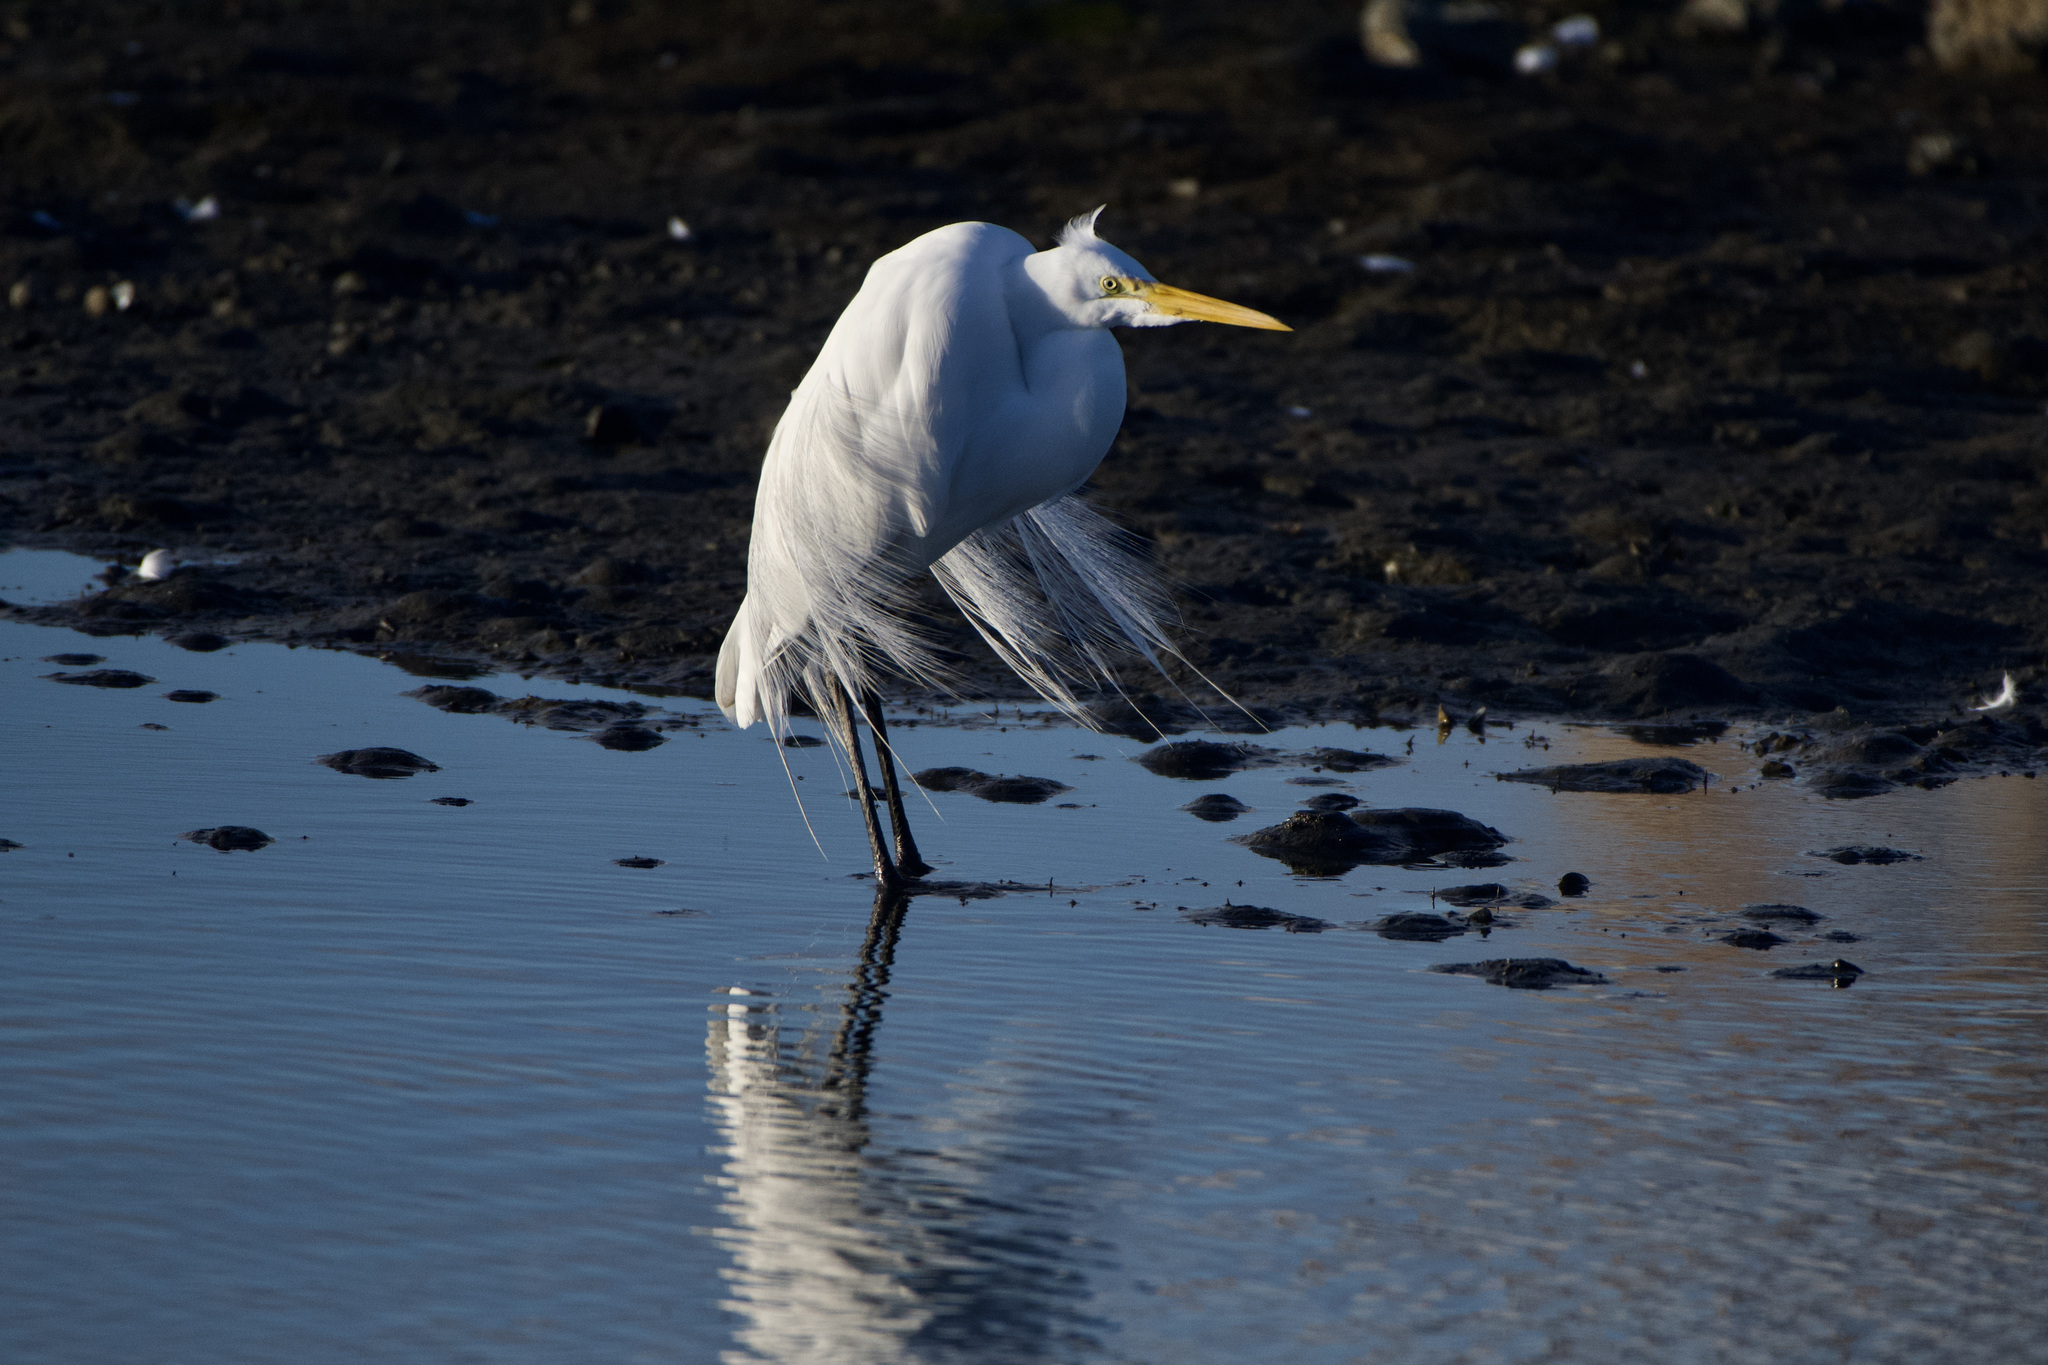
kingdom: Animalia
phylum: Chordata
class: Aves
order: Pelecaniformes
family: Ardeidae
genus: Ardea
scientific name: Ardea alba
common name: Great egret
